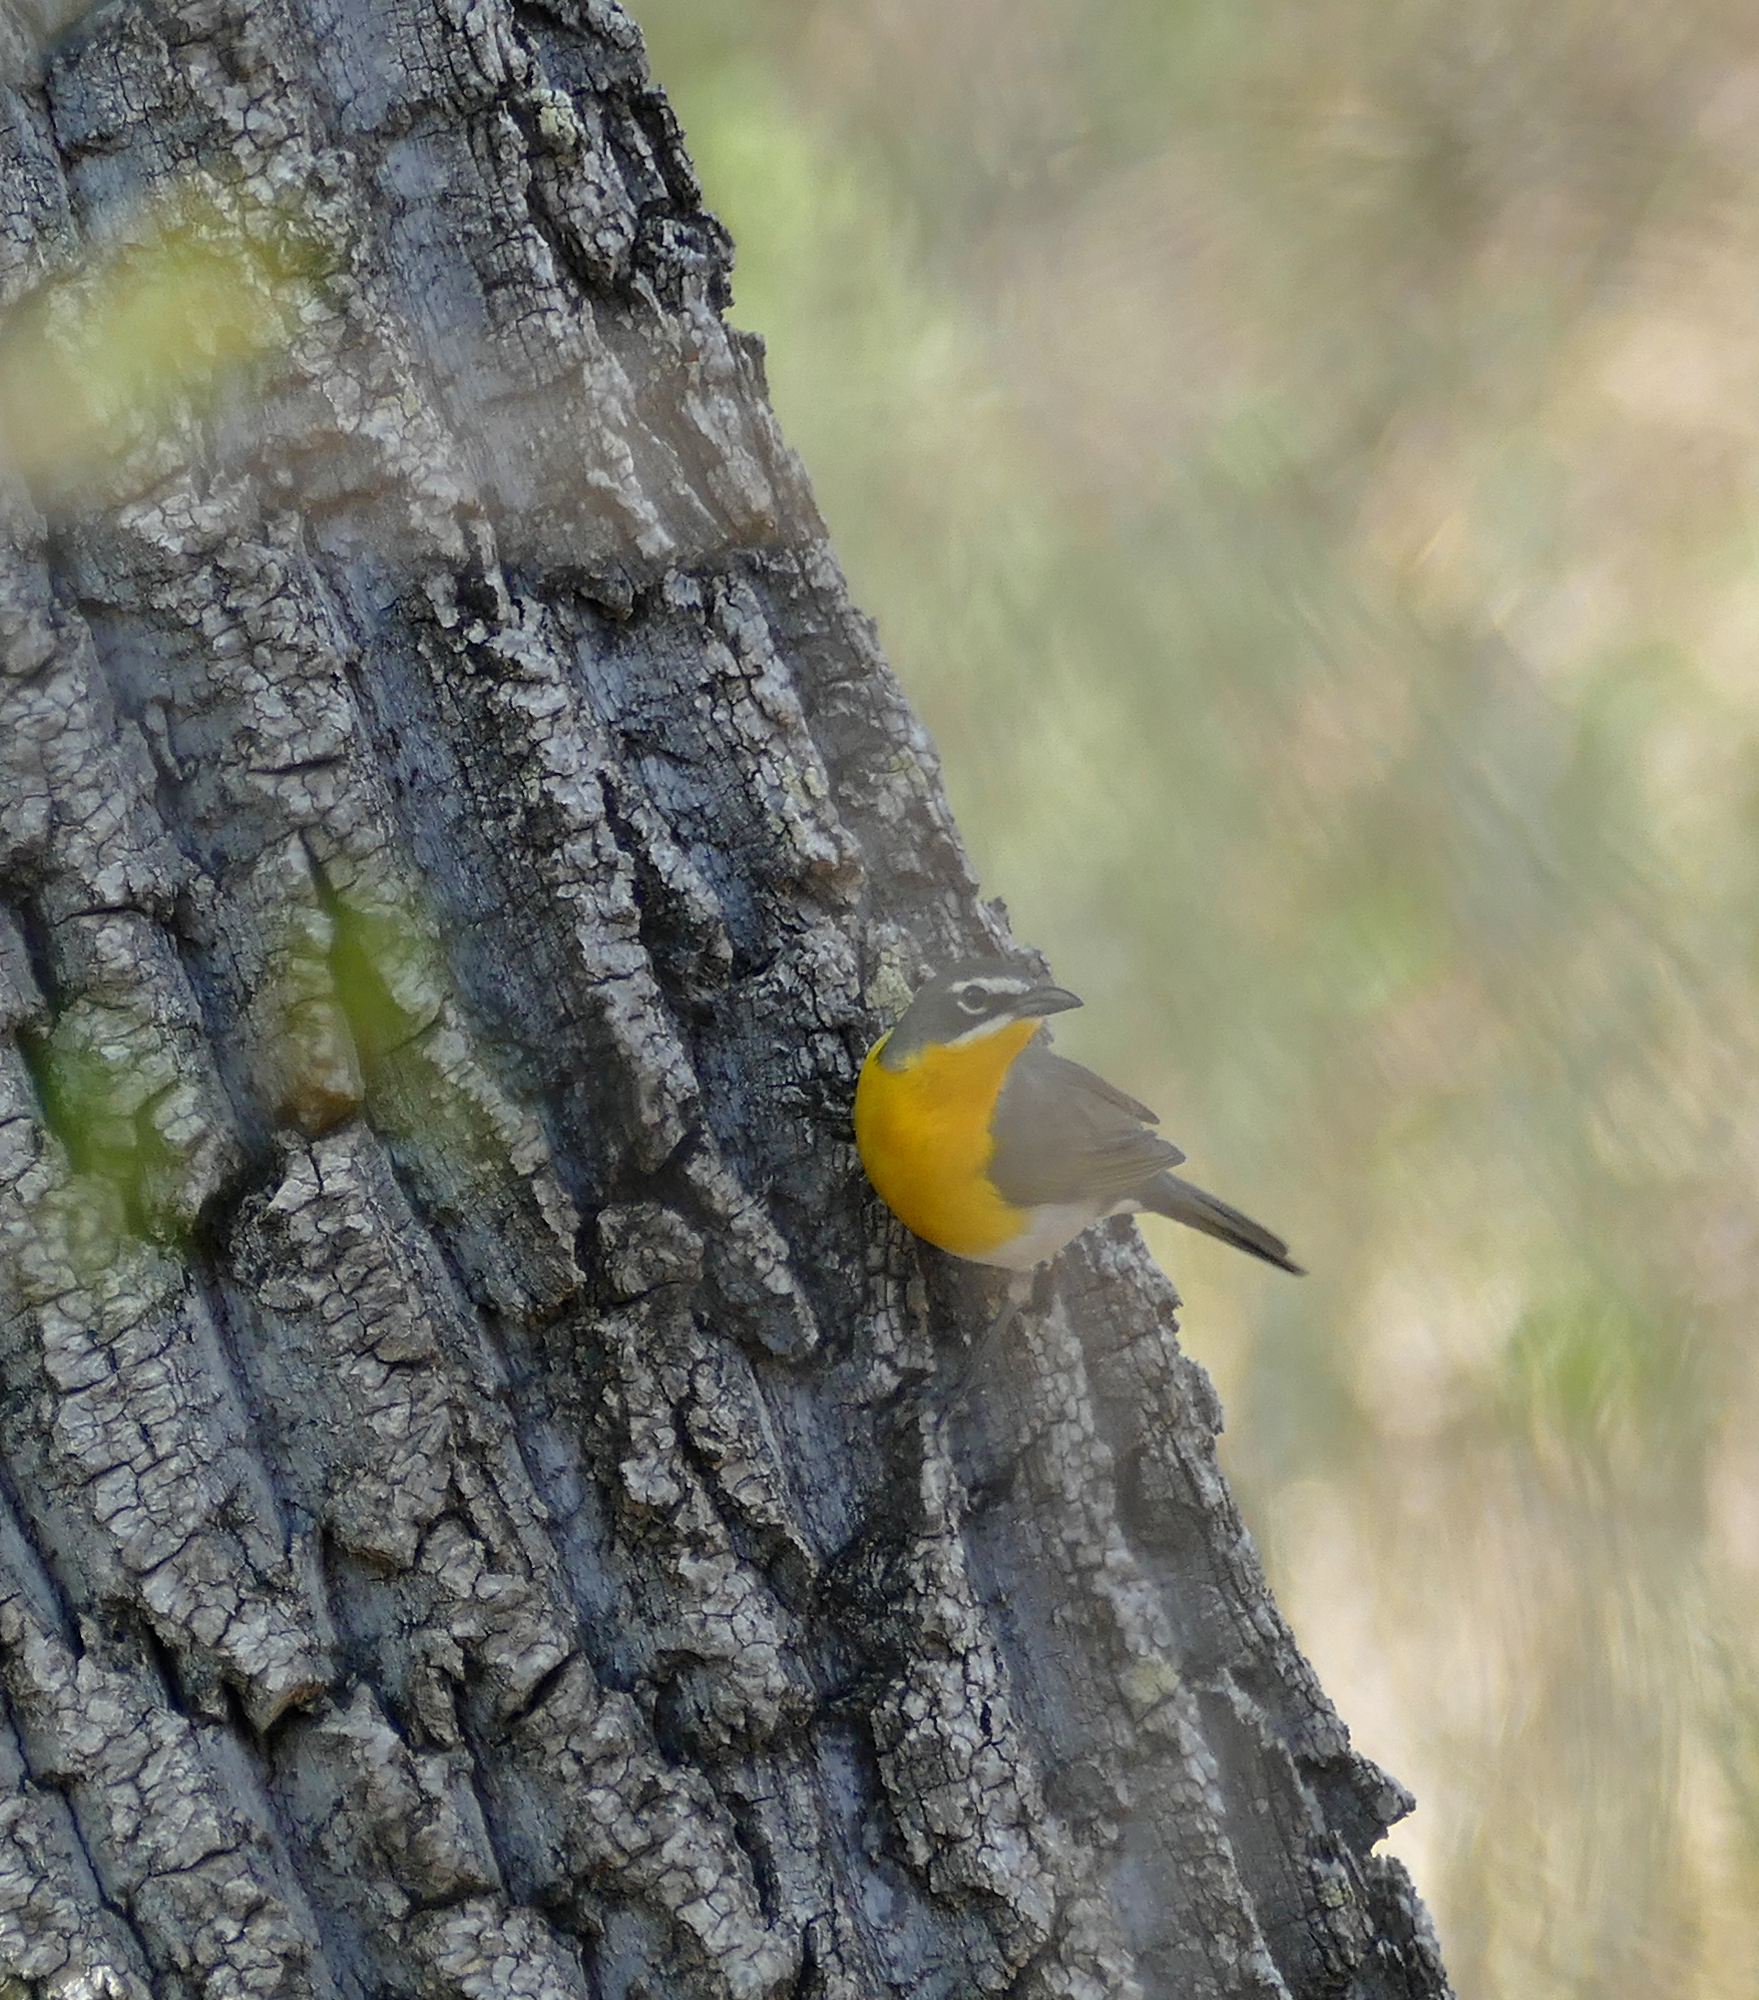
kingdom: Animalia
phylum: Chordata
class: Aves
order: Passeriformes
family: Parulidae
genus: Icteria
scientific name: Icteria virens
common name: Yellow-breasted chat
